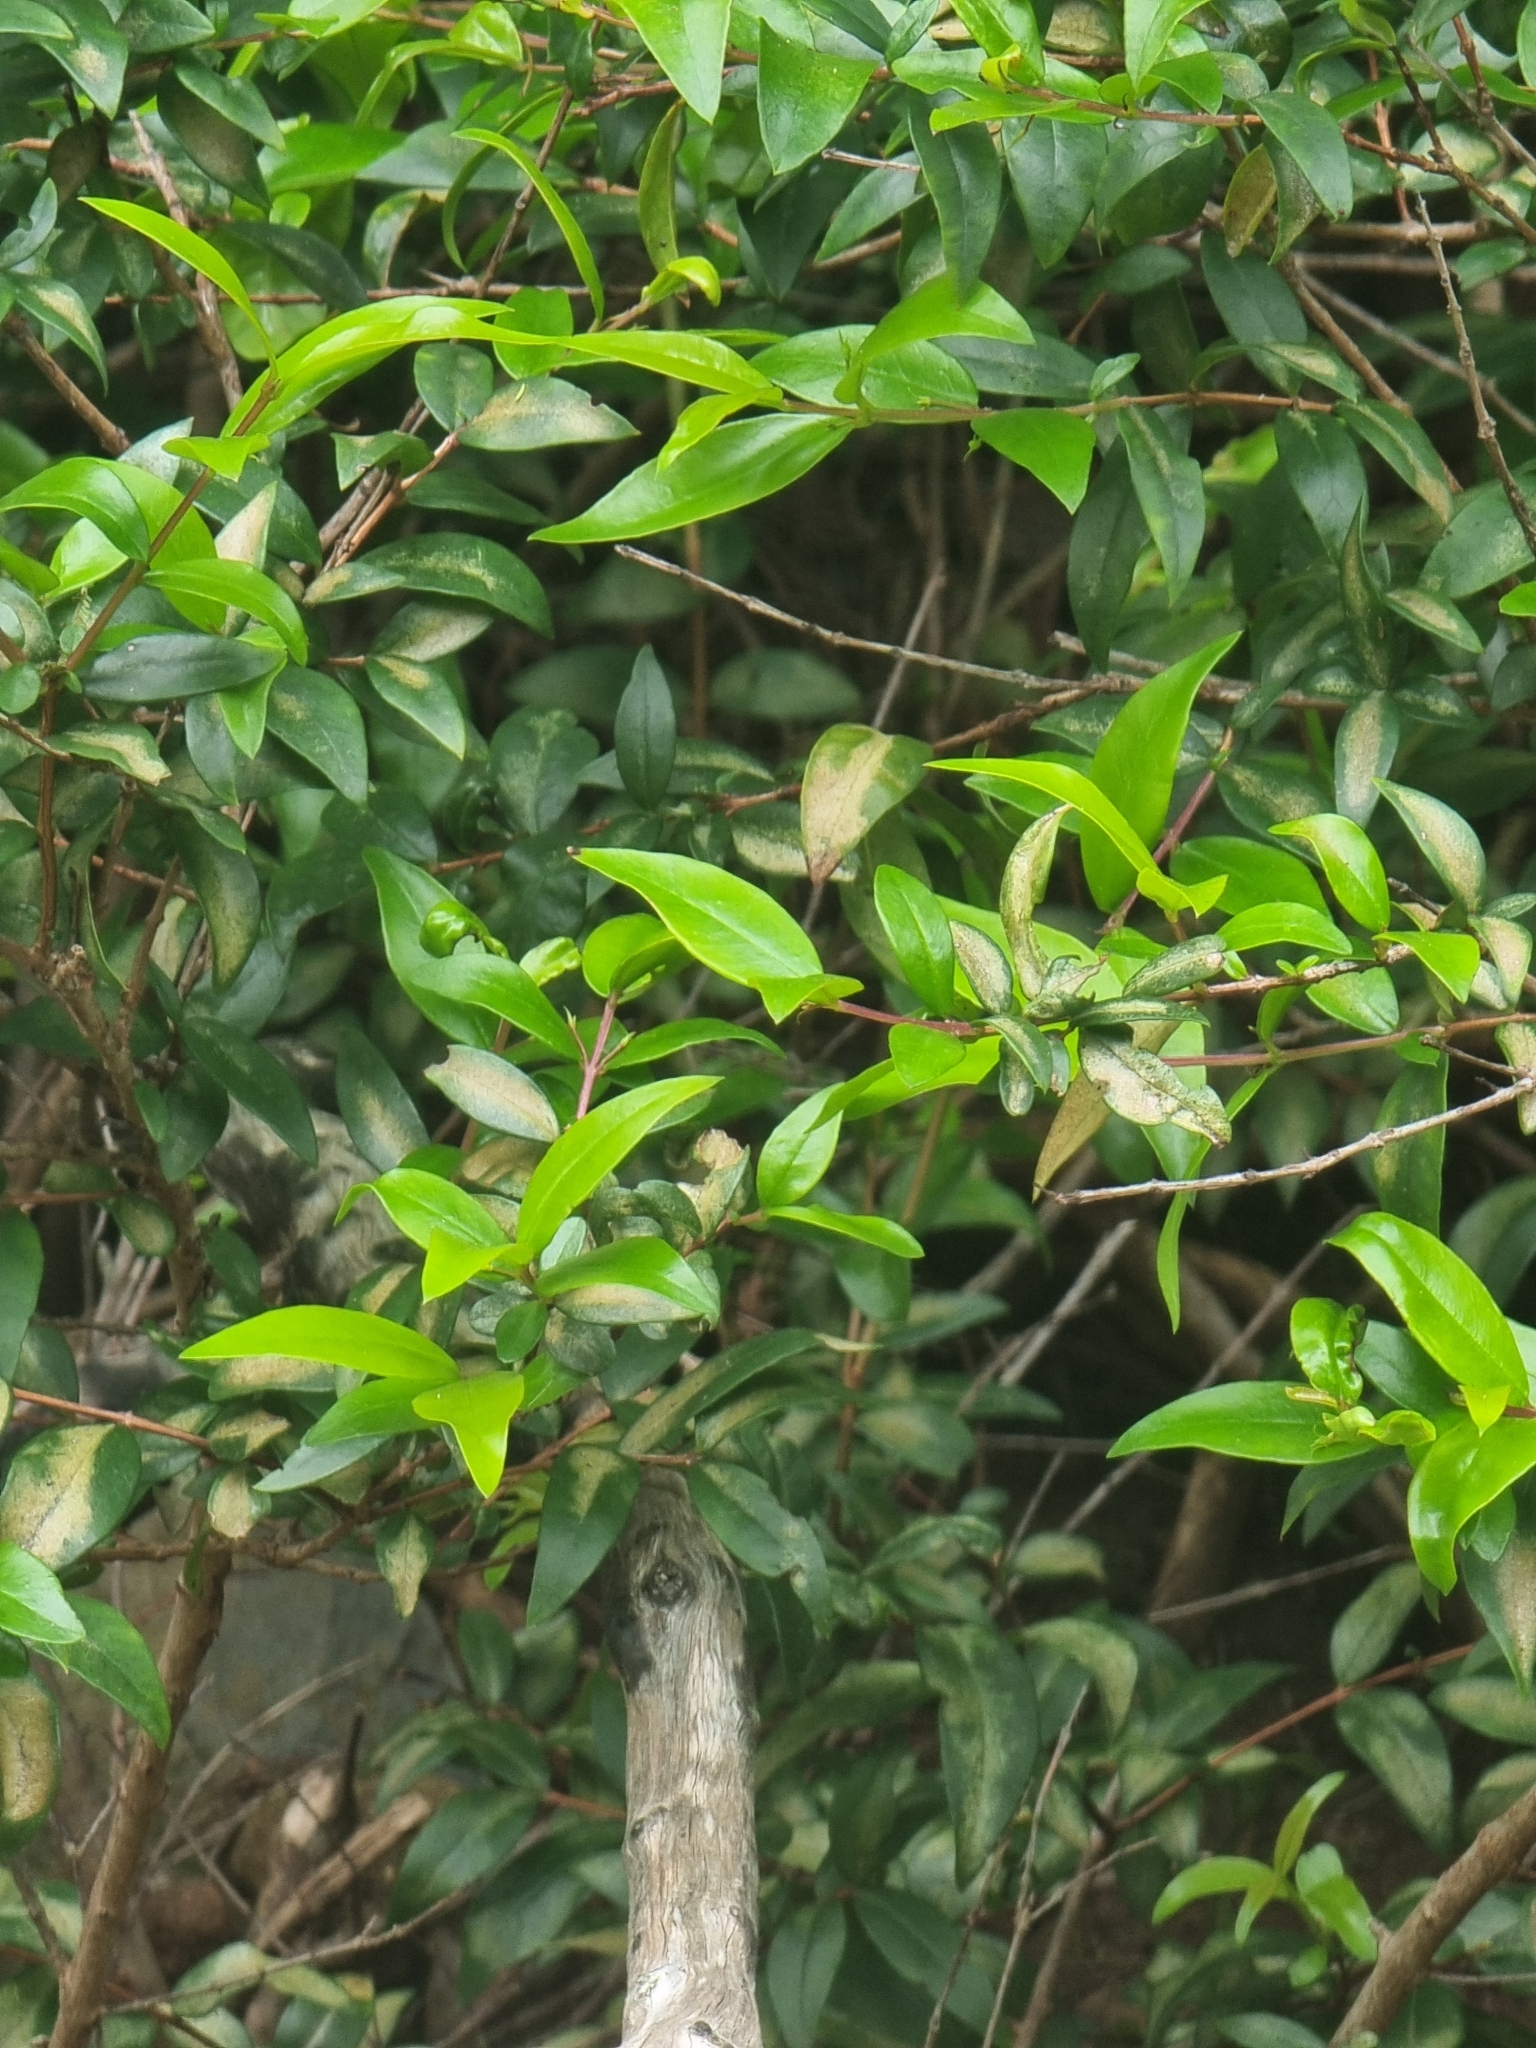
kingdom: Plantae
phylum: Tracheophyta
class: Magnoliopsida
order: Myrtales
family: Myrtaceae
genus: Myrtus
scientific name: Myrtus communis
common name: Myrtle
